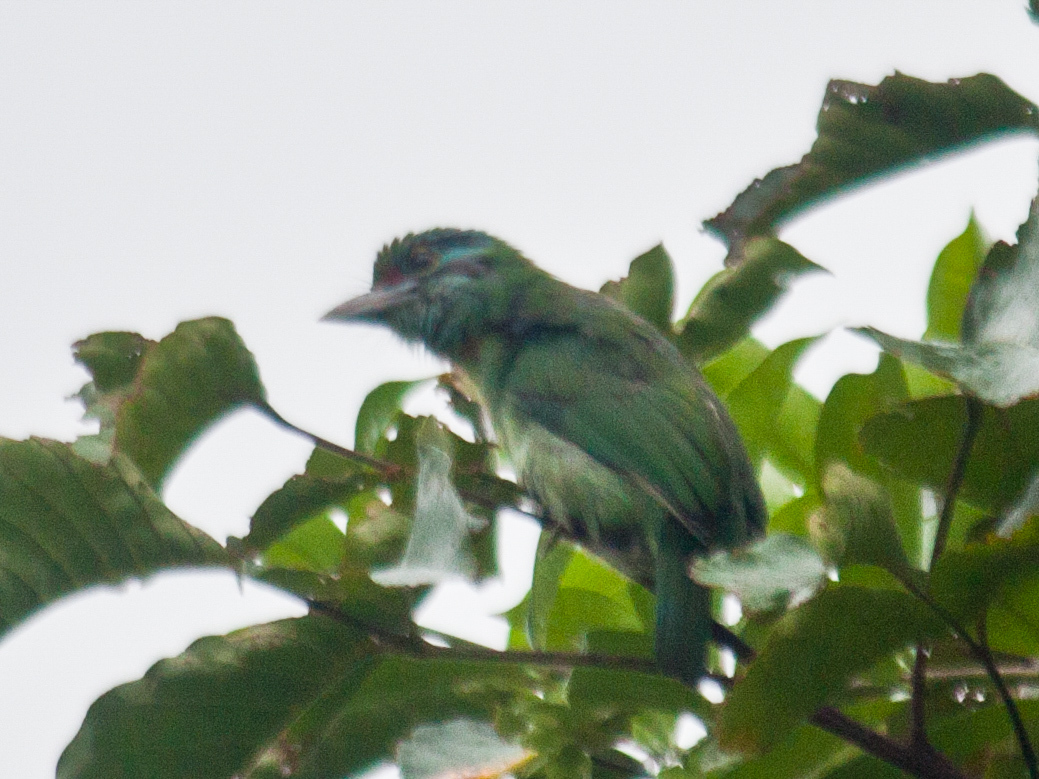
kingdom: Animalia
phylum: Chordata
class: Aves
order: Piciformes
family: Megalaimidae
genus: Psilopogon
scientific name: Psilopogon incognitus
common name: Moustached barbet
